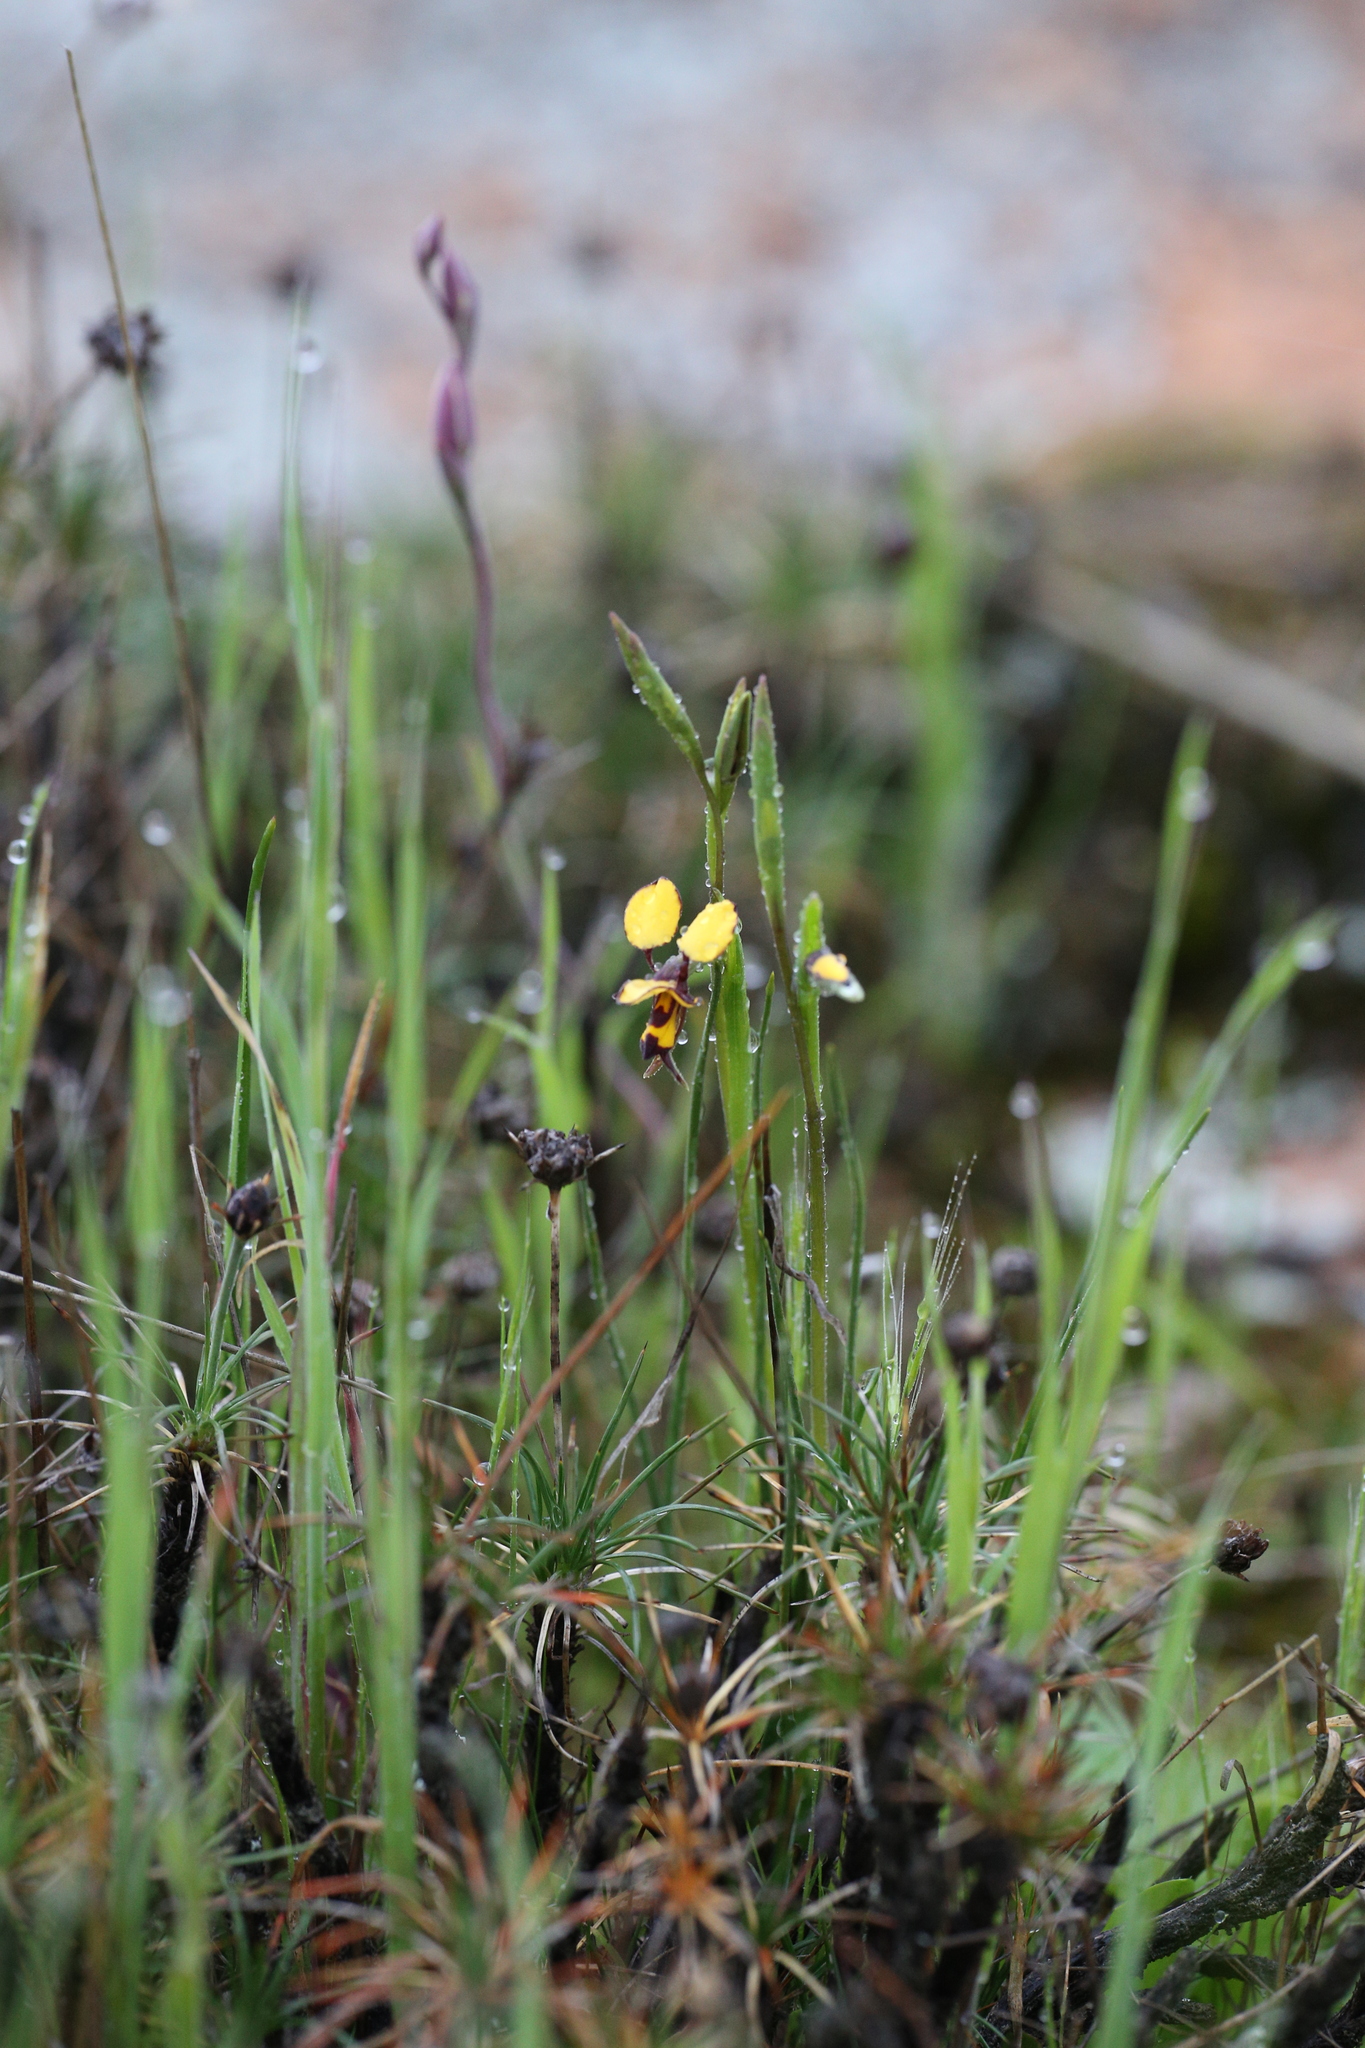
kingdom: Plantae
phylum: Tracheophyta
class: Liliopsida
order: Asparagales
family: Orchidaceae
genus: Diuris
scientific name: Diuris segregata
